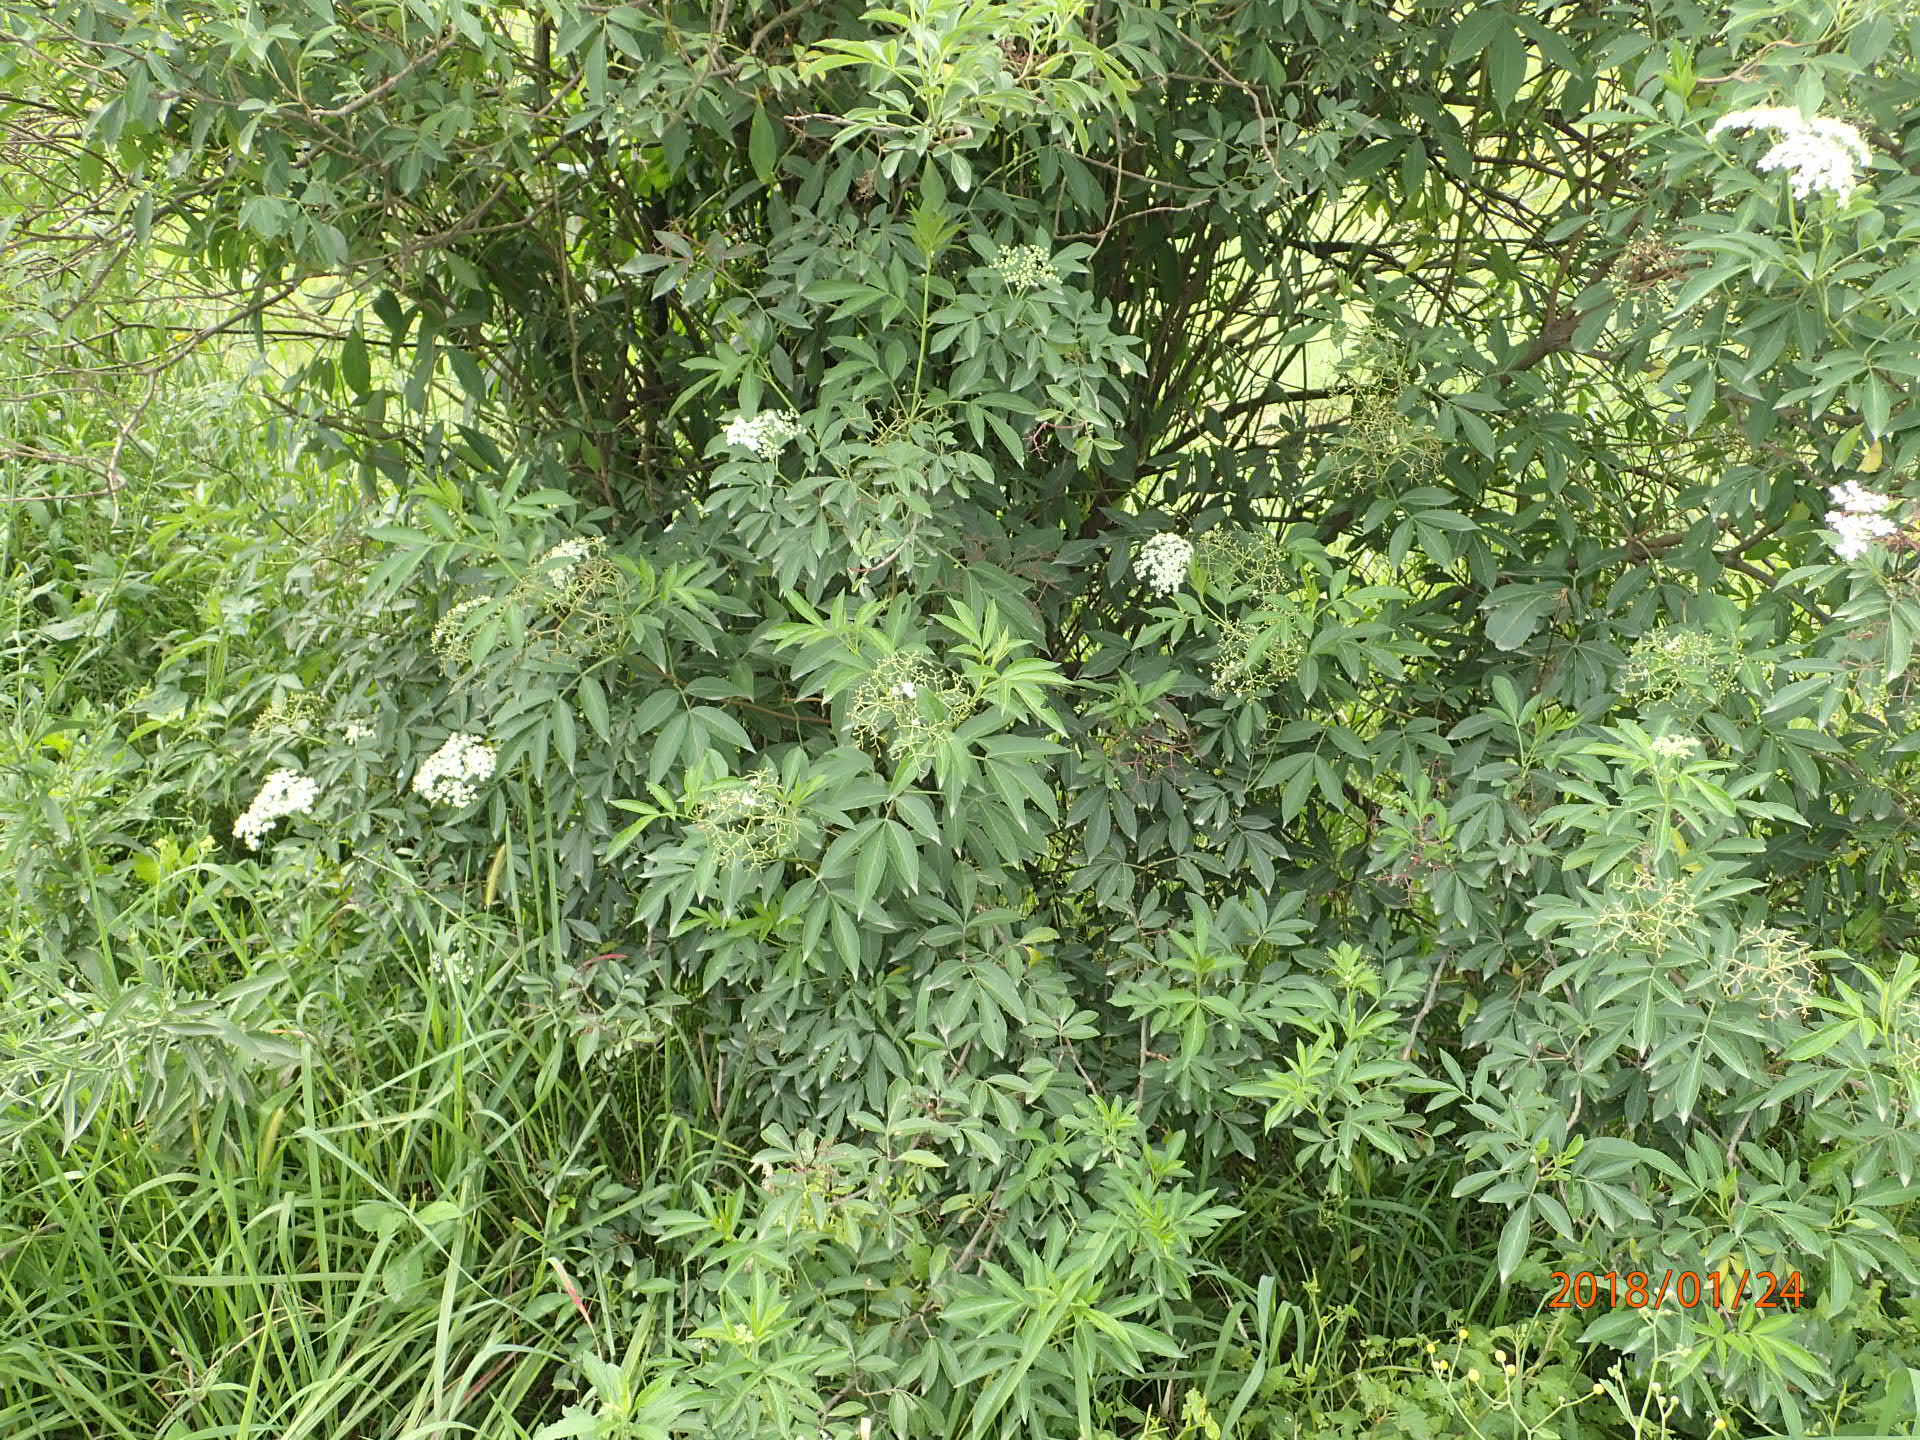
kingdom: Plantae
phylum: Tracheophyta
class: Magnoliopsida
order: Dipsacales
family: Viburnaceae
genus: Sambucus
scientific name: Sambucus canadensis
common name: American elder
